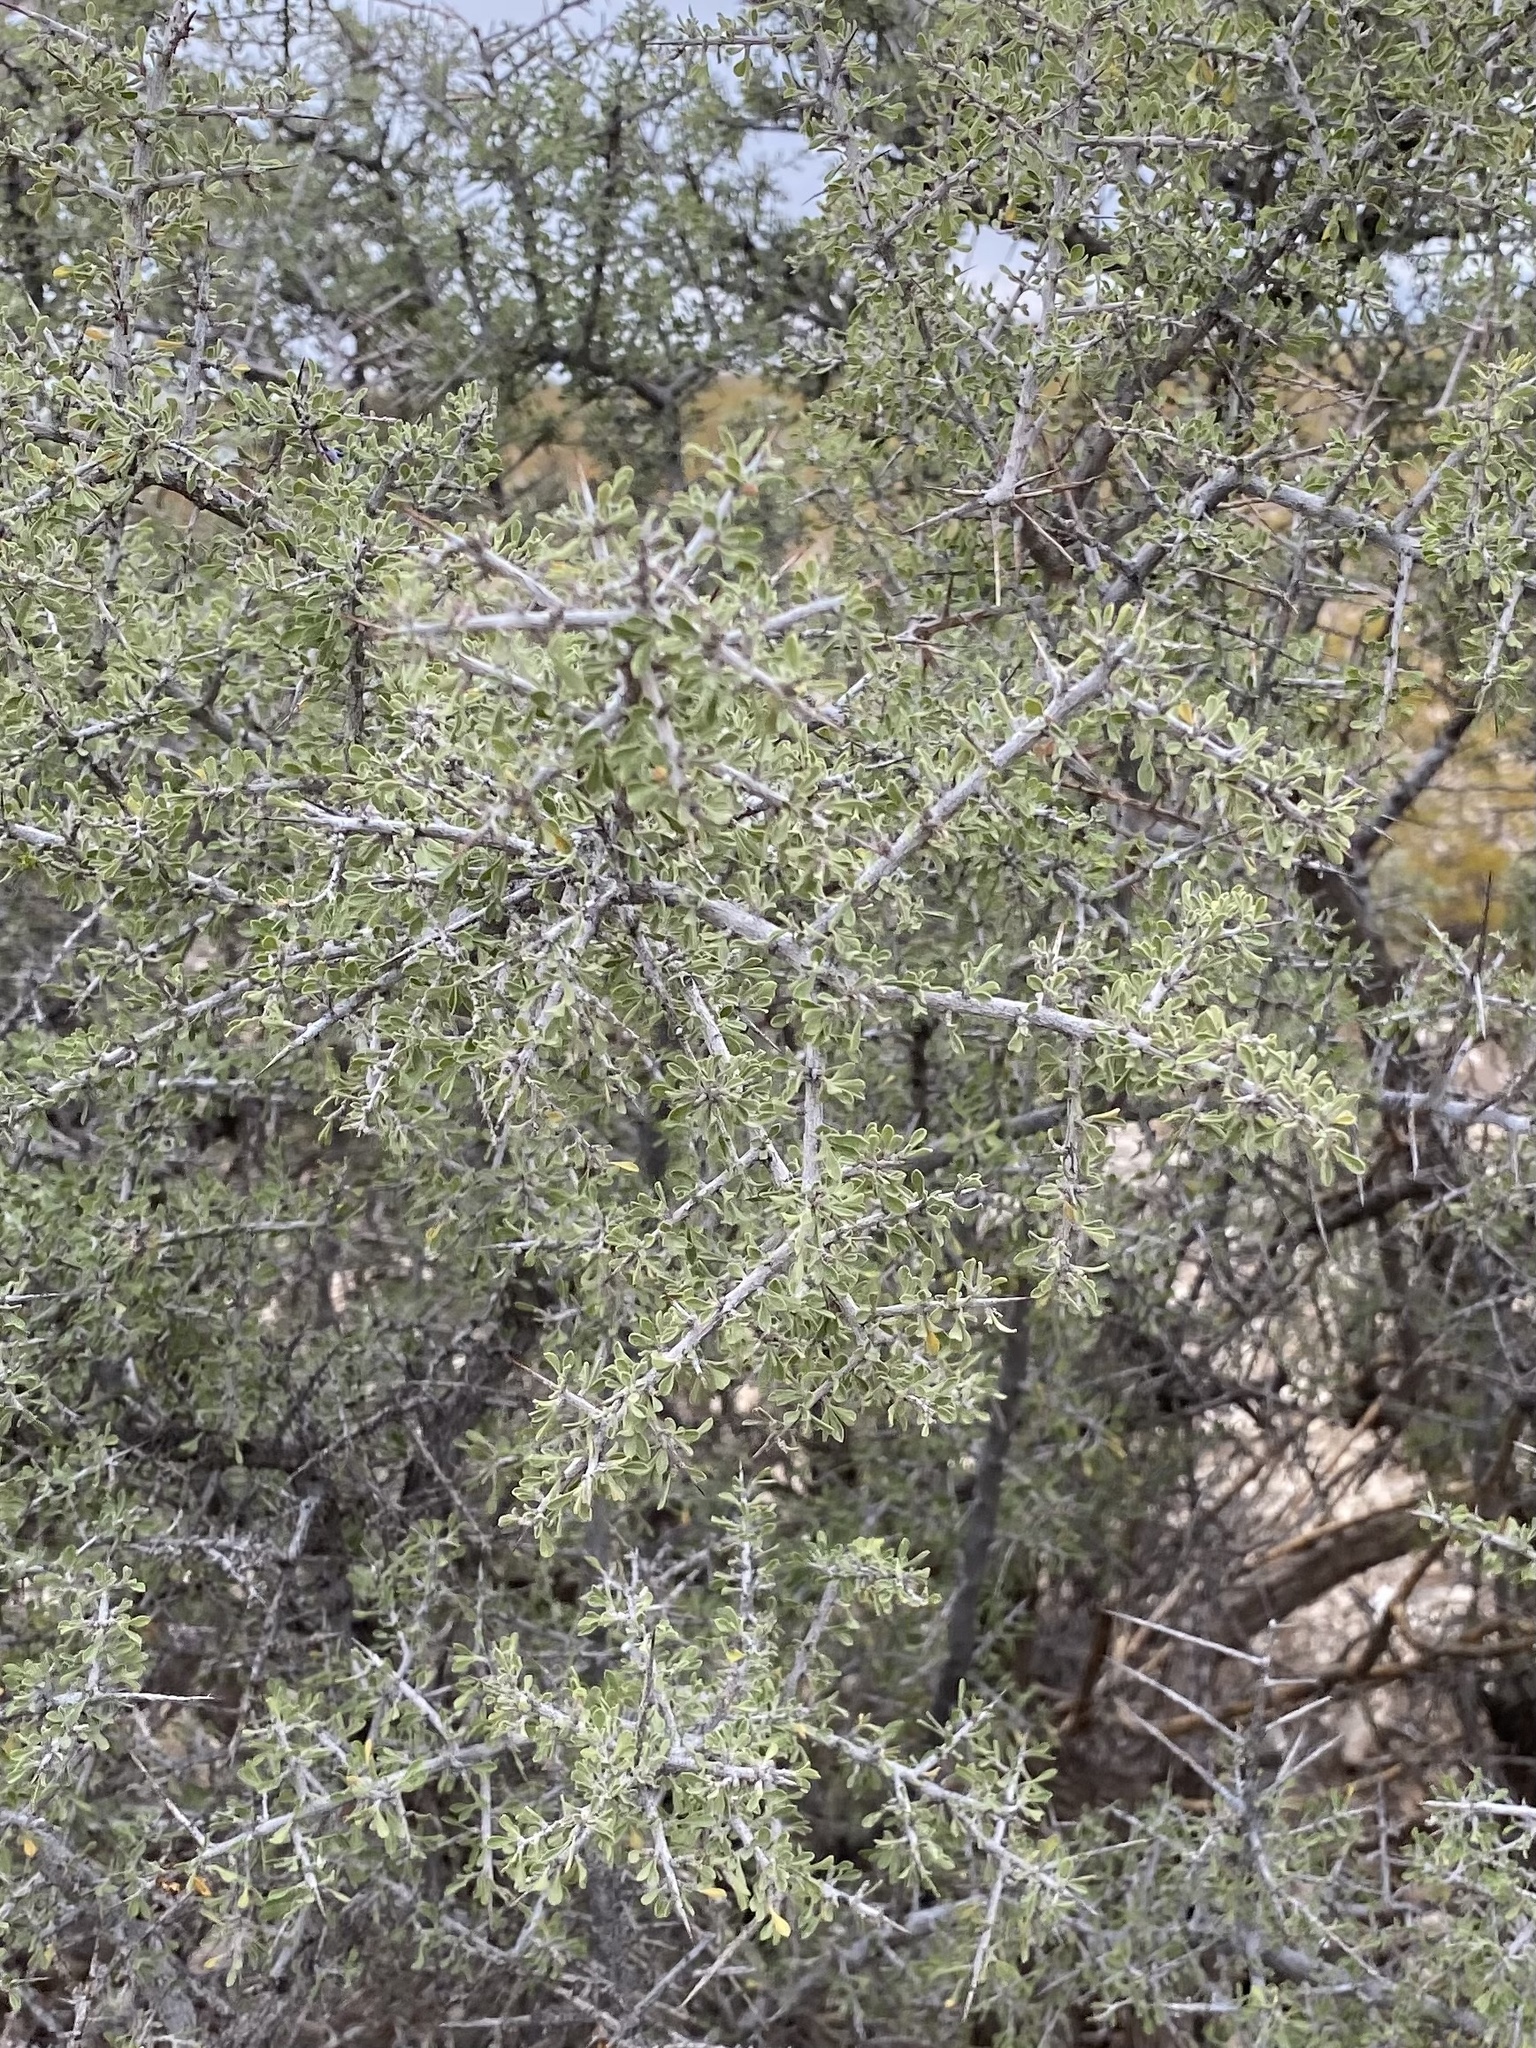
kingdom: Plantae
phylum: Tracheophyta
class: Magnoliopsida
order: Rosales
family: Rhamnaceae
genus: Condalia
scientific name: Condalia warnockii
